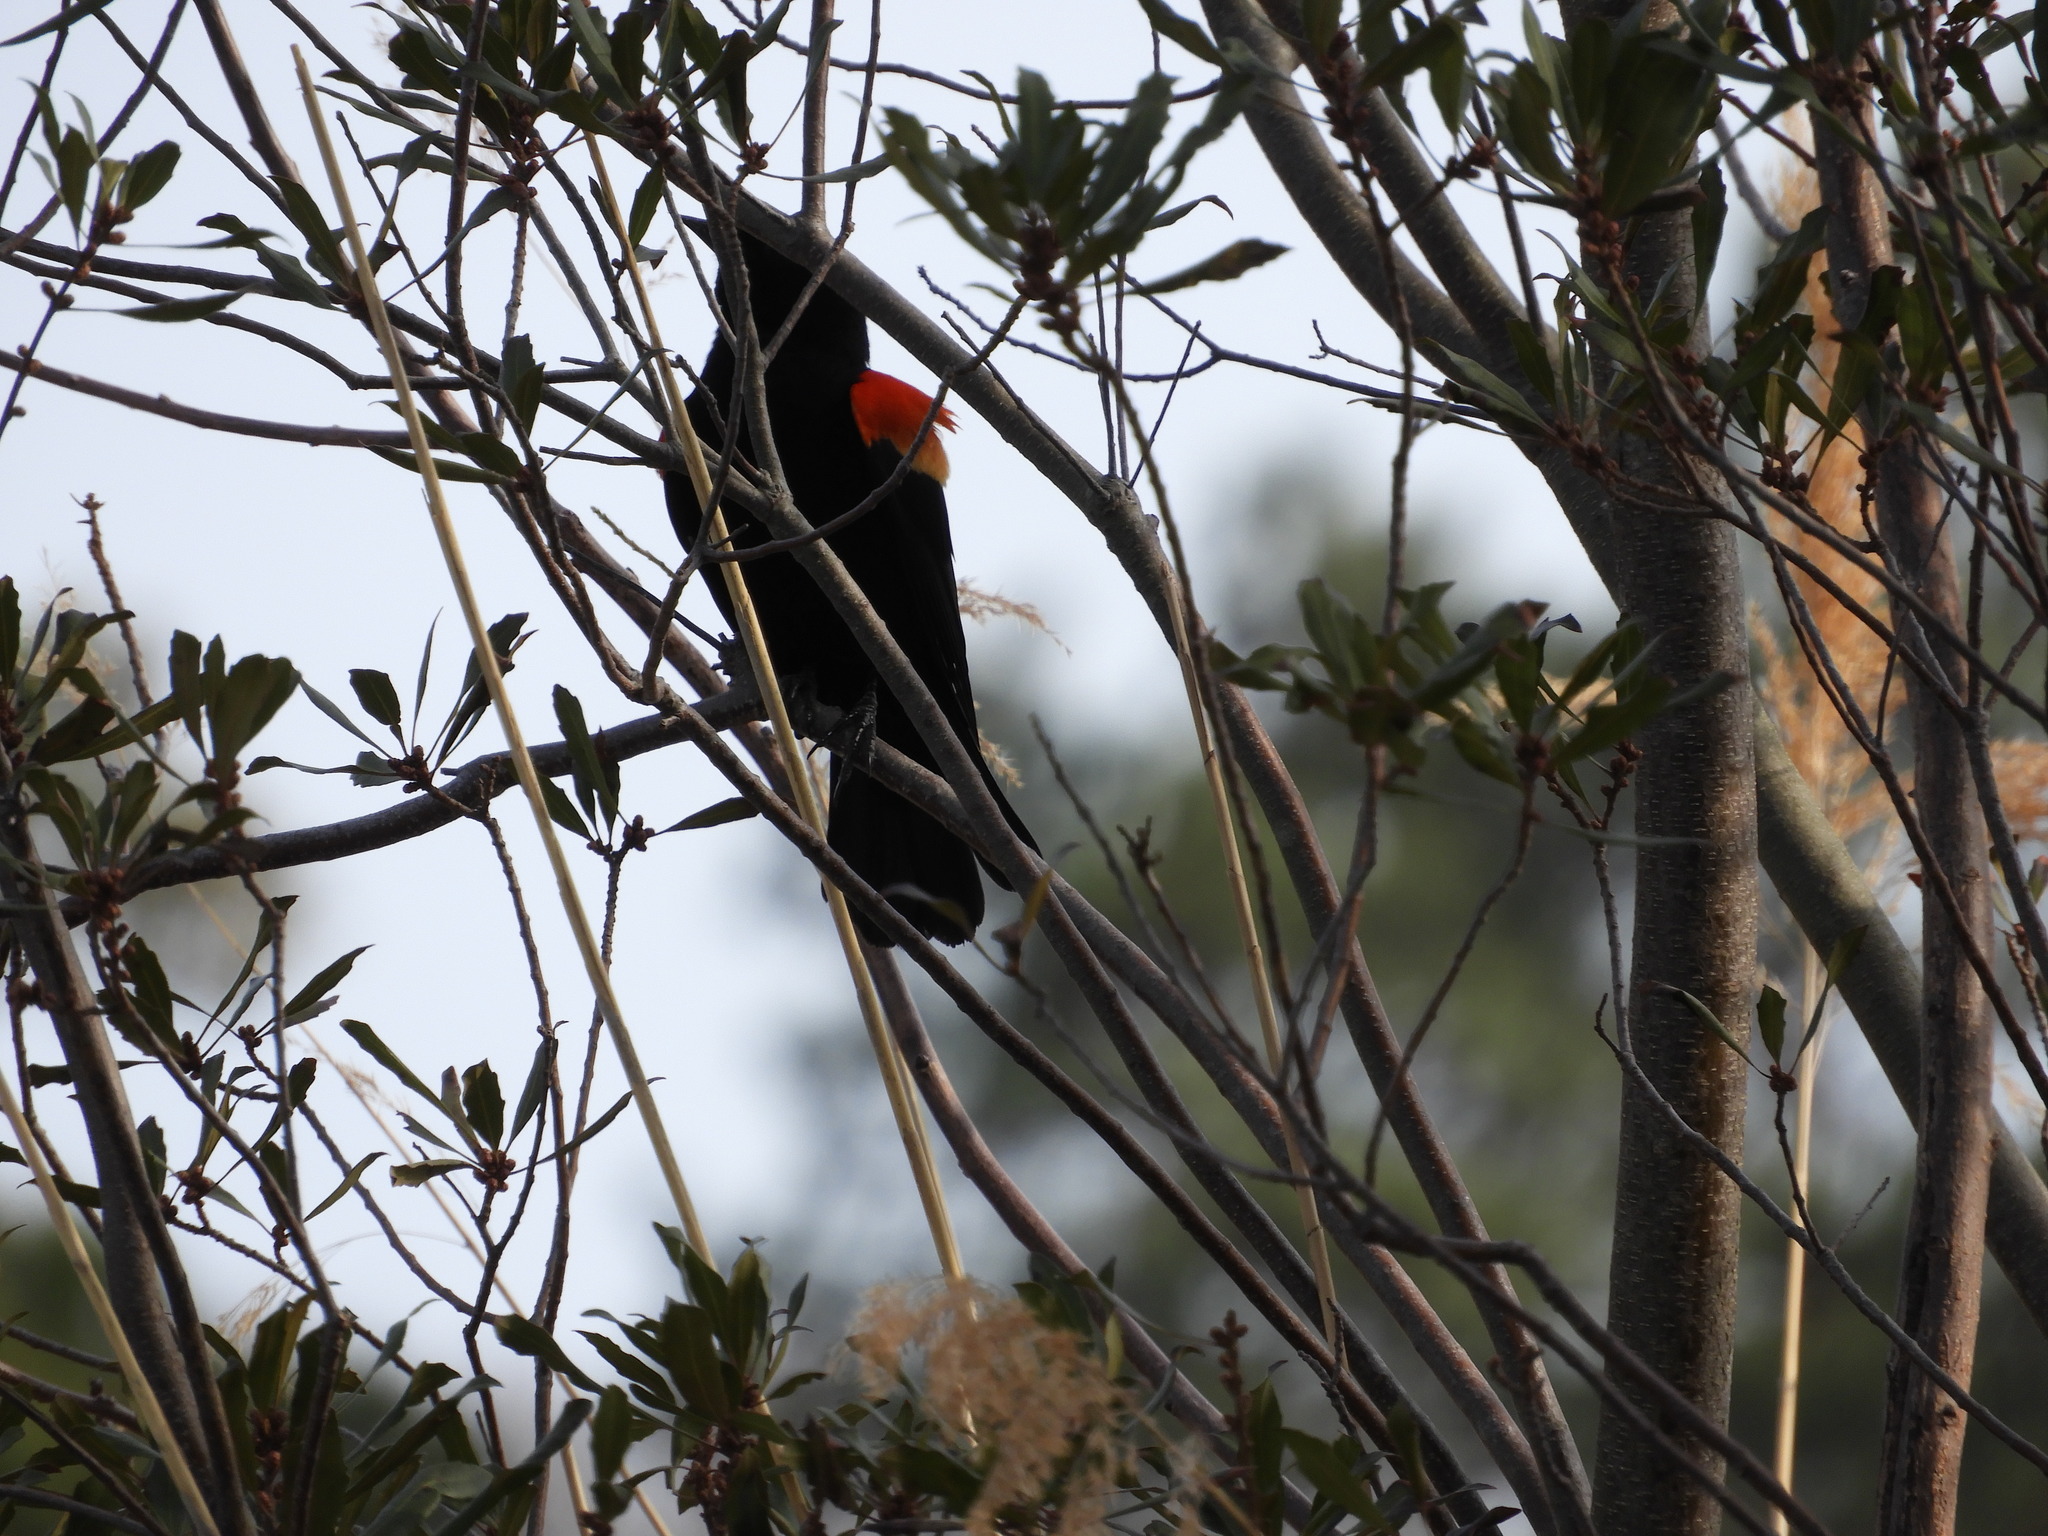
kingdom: Animalia
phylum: Chordata
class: Aves
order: Passeriformes
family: Icteridae
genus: Agelaius
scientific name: Agelaius phoeniceus
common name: Red-winged blackbird
